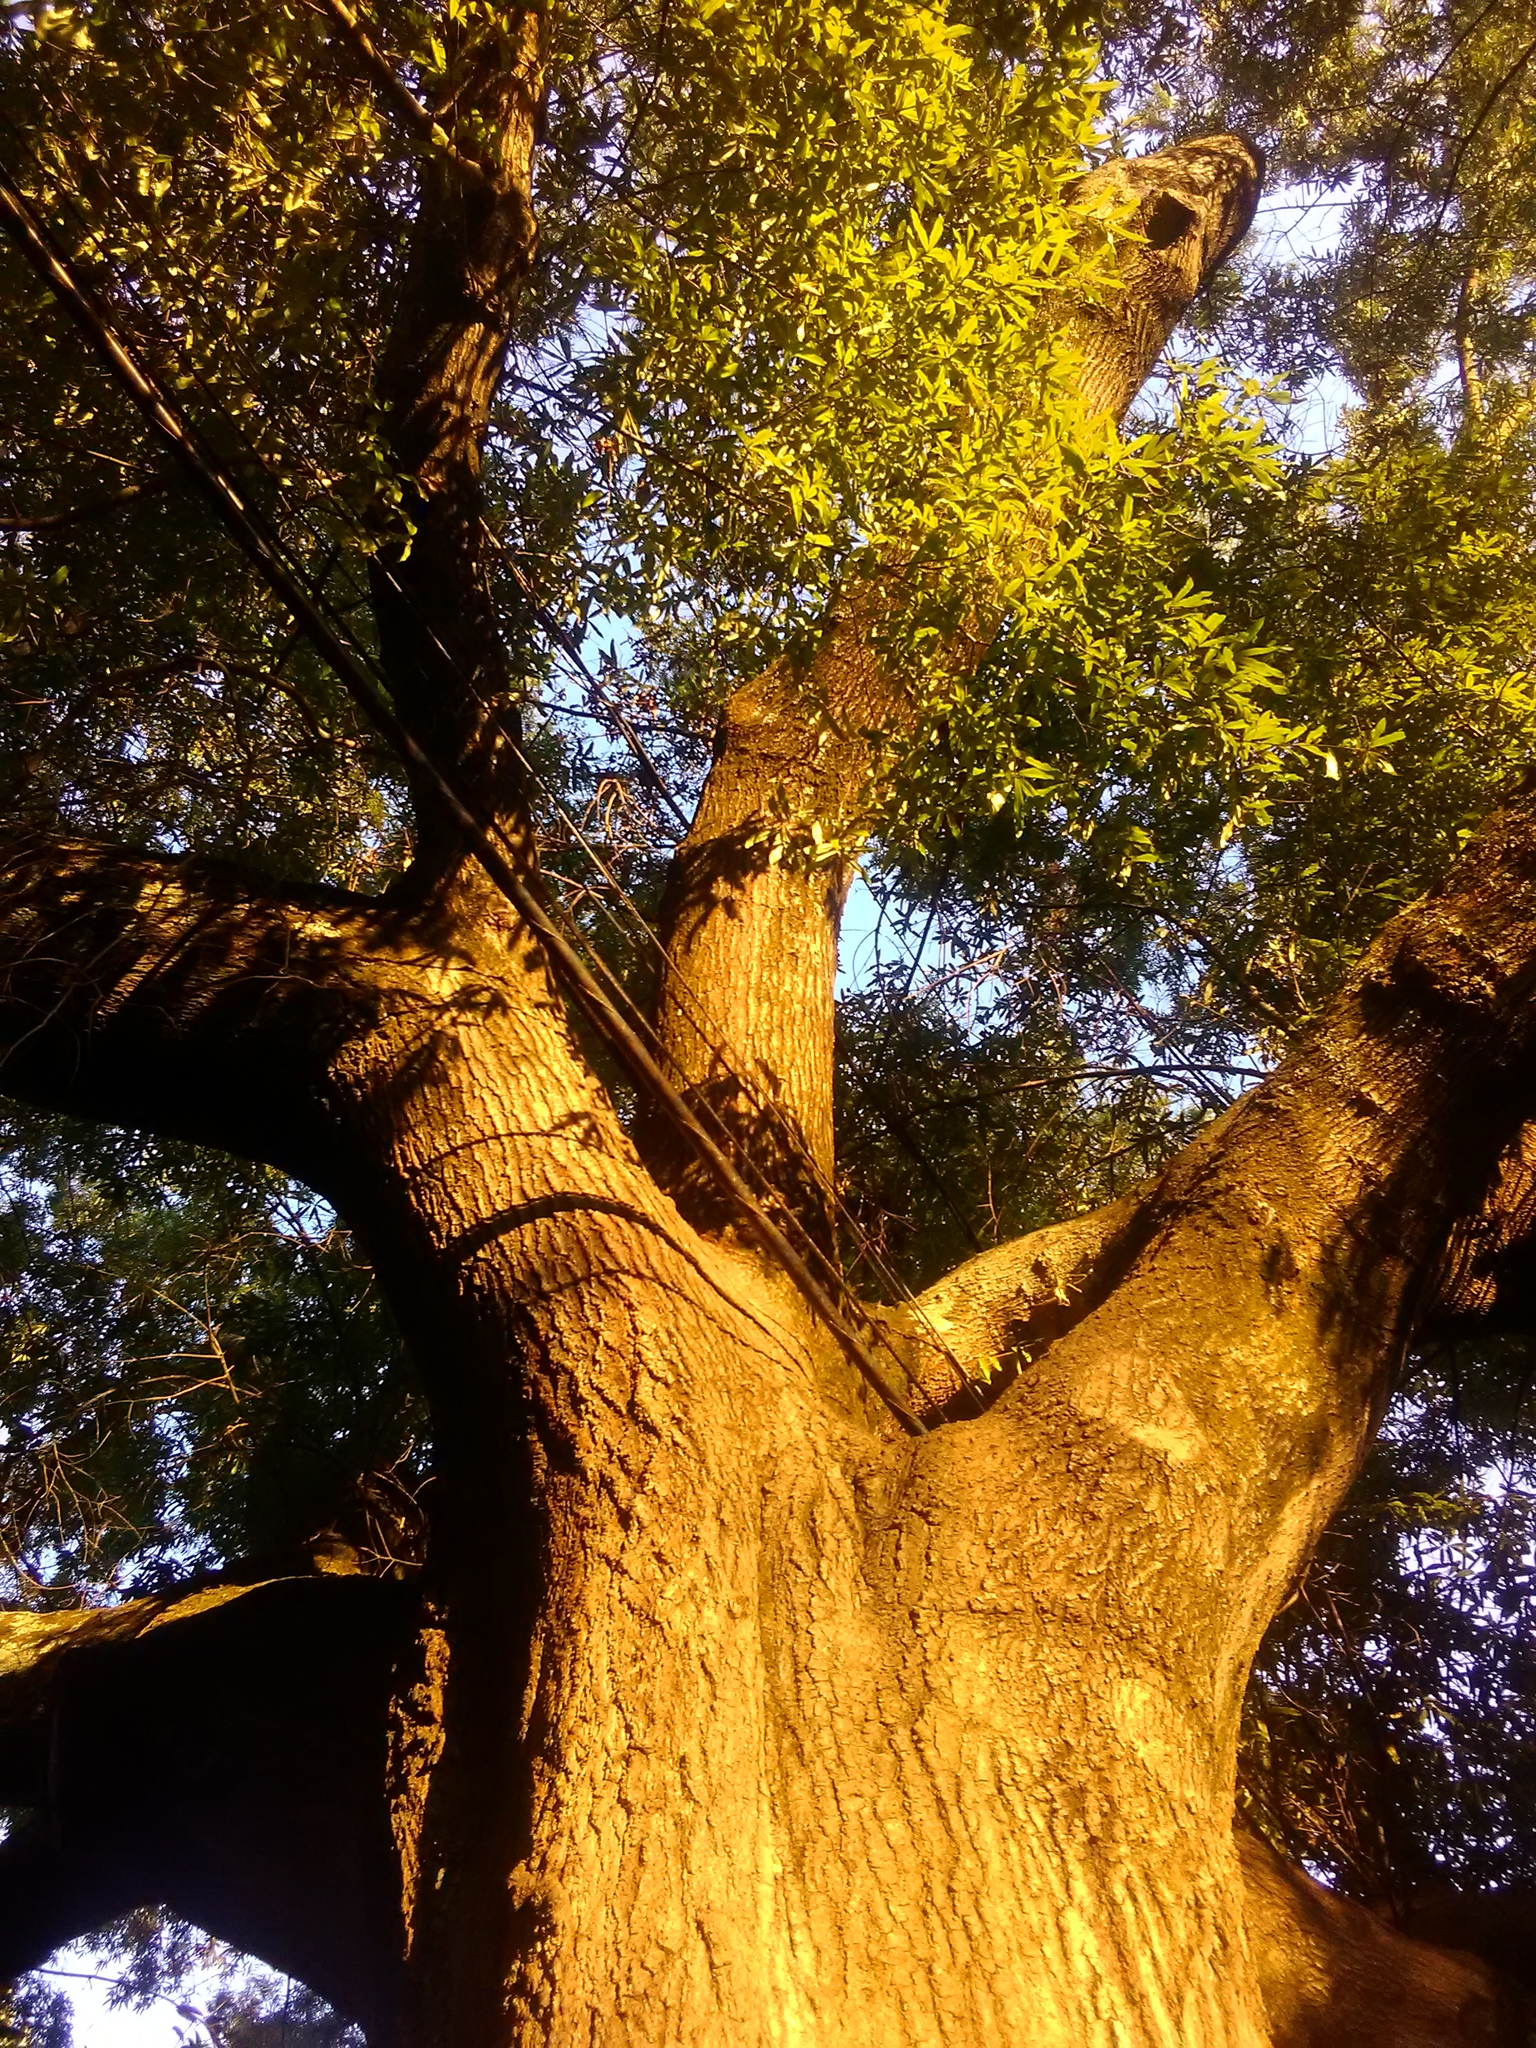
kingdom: Plantae
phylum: Tracheophyta
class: Magnoliopsida
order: Fagales
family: Fagaceae
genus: Quercus
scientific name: Quercus phellos
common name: Willow oak
